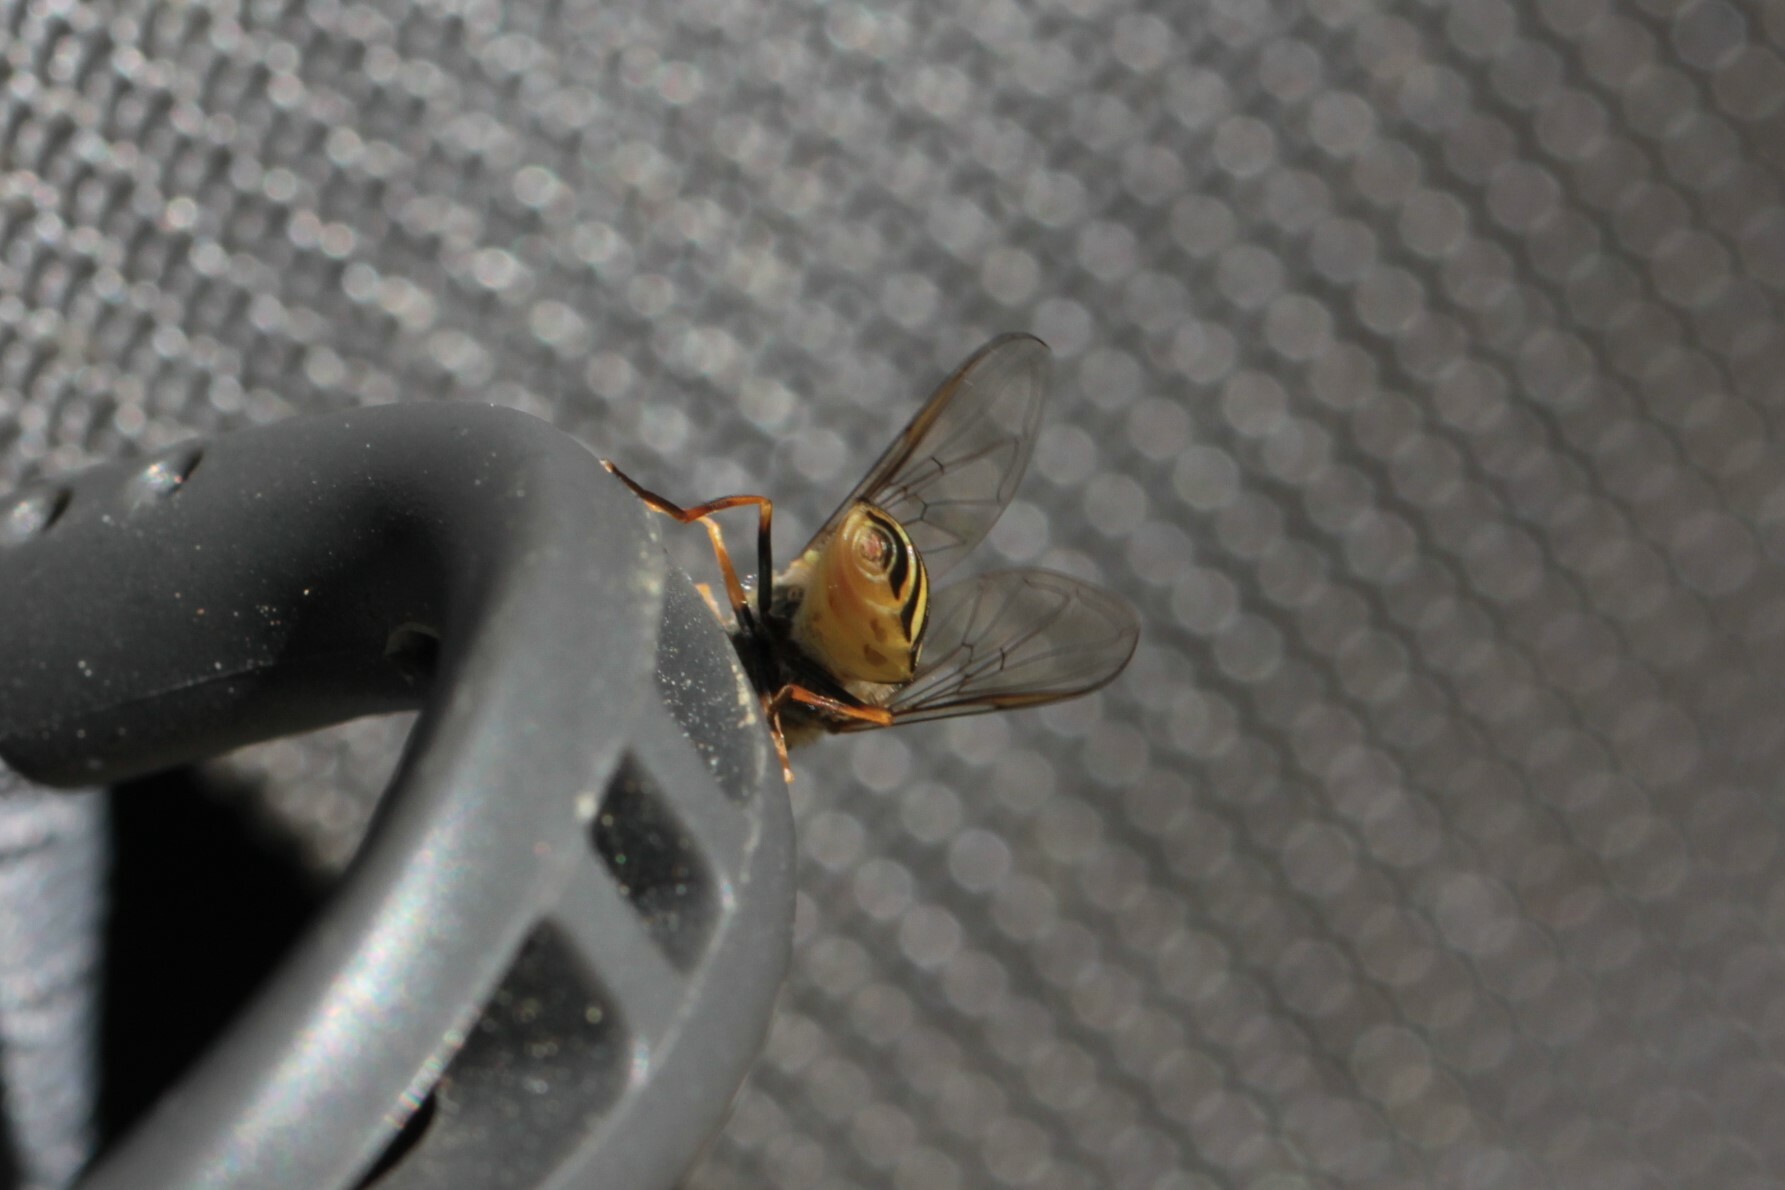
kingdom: Animalia
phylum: Arthropoda
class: Insecta
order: Diptera
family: Syrphidae
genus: Syrphus
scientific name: Syrphus
